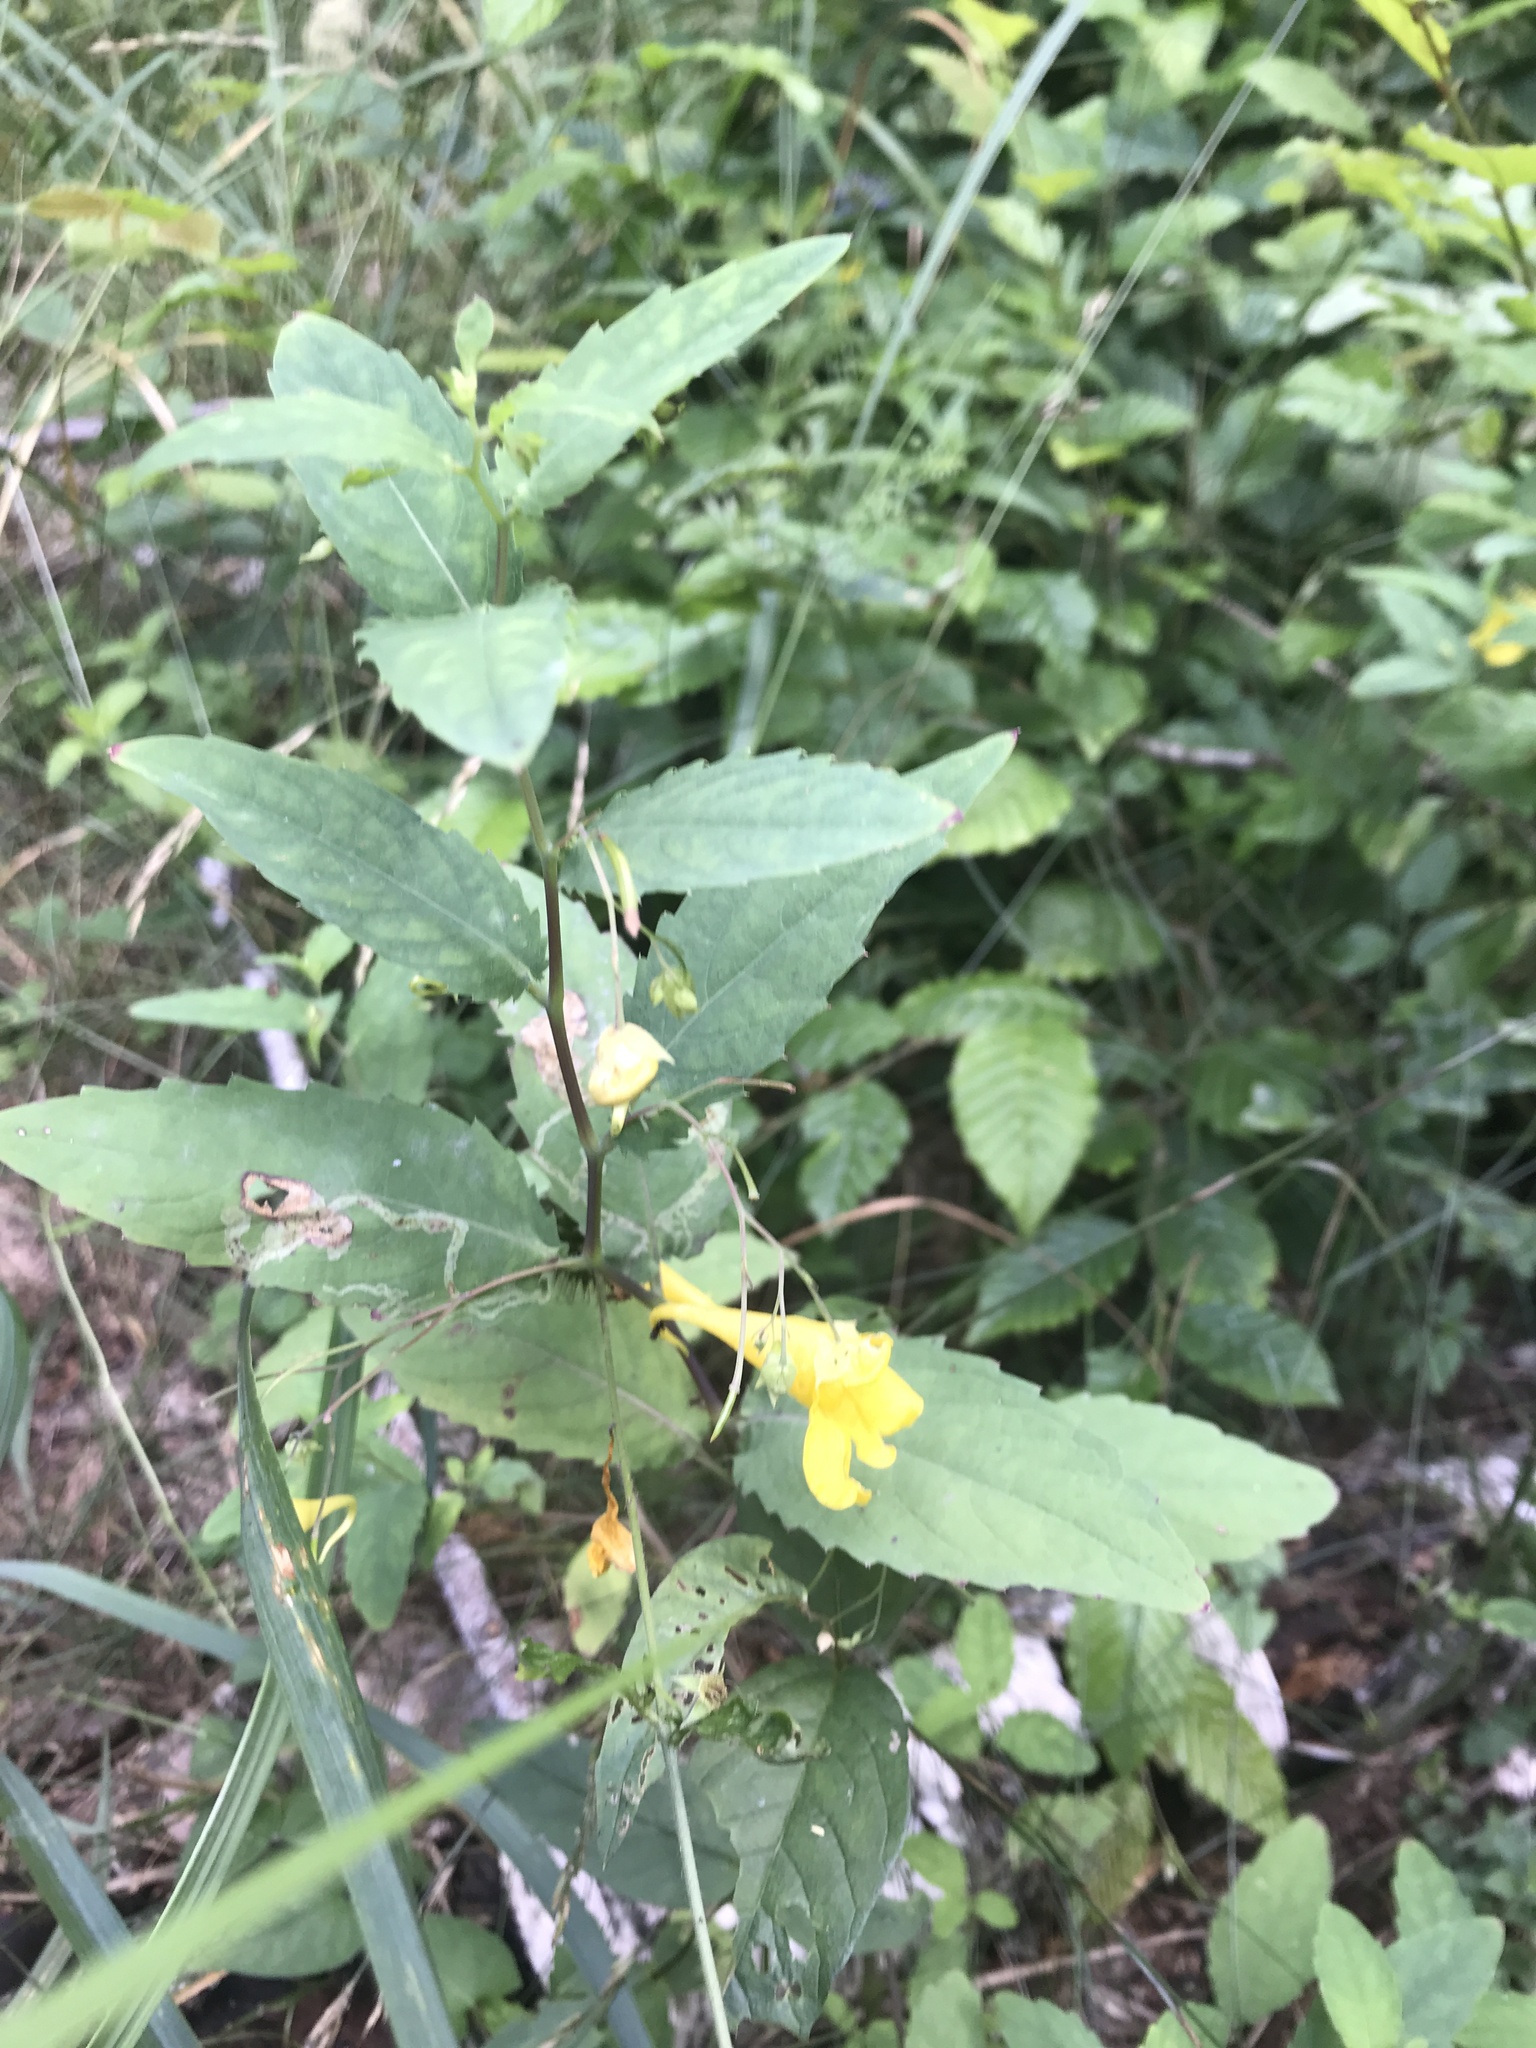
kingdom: Plantae
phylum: Tracheophyta
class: Magnoliopsida
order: Ericales
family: Balsaminaceae
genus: Impatiens
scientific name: Impatiens noli-tangere
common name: Touch-me-not balsam
